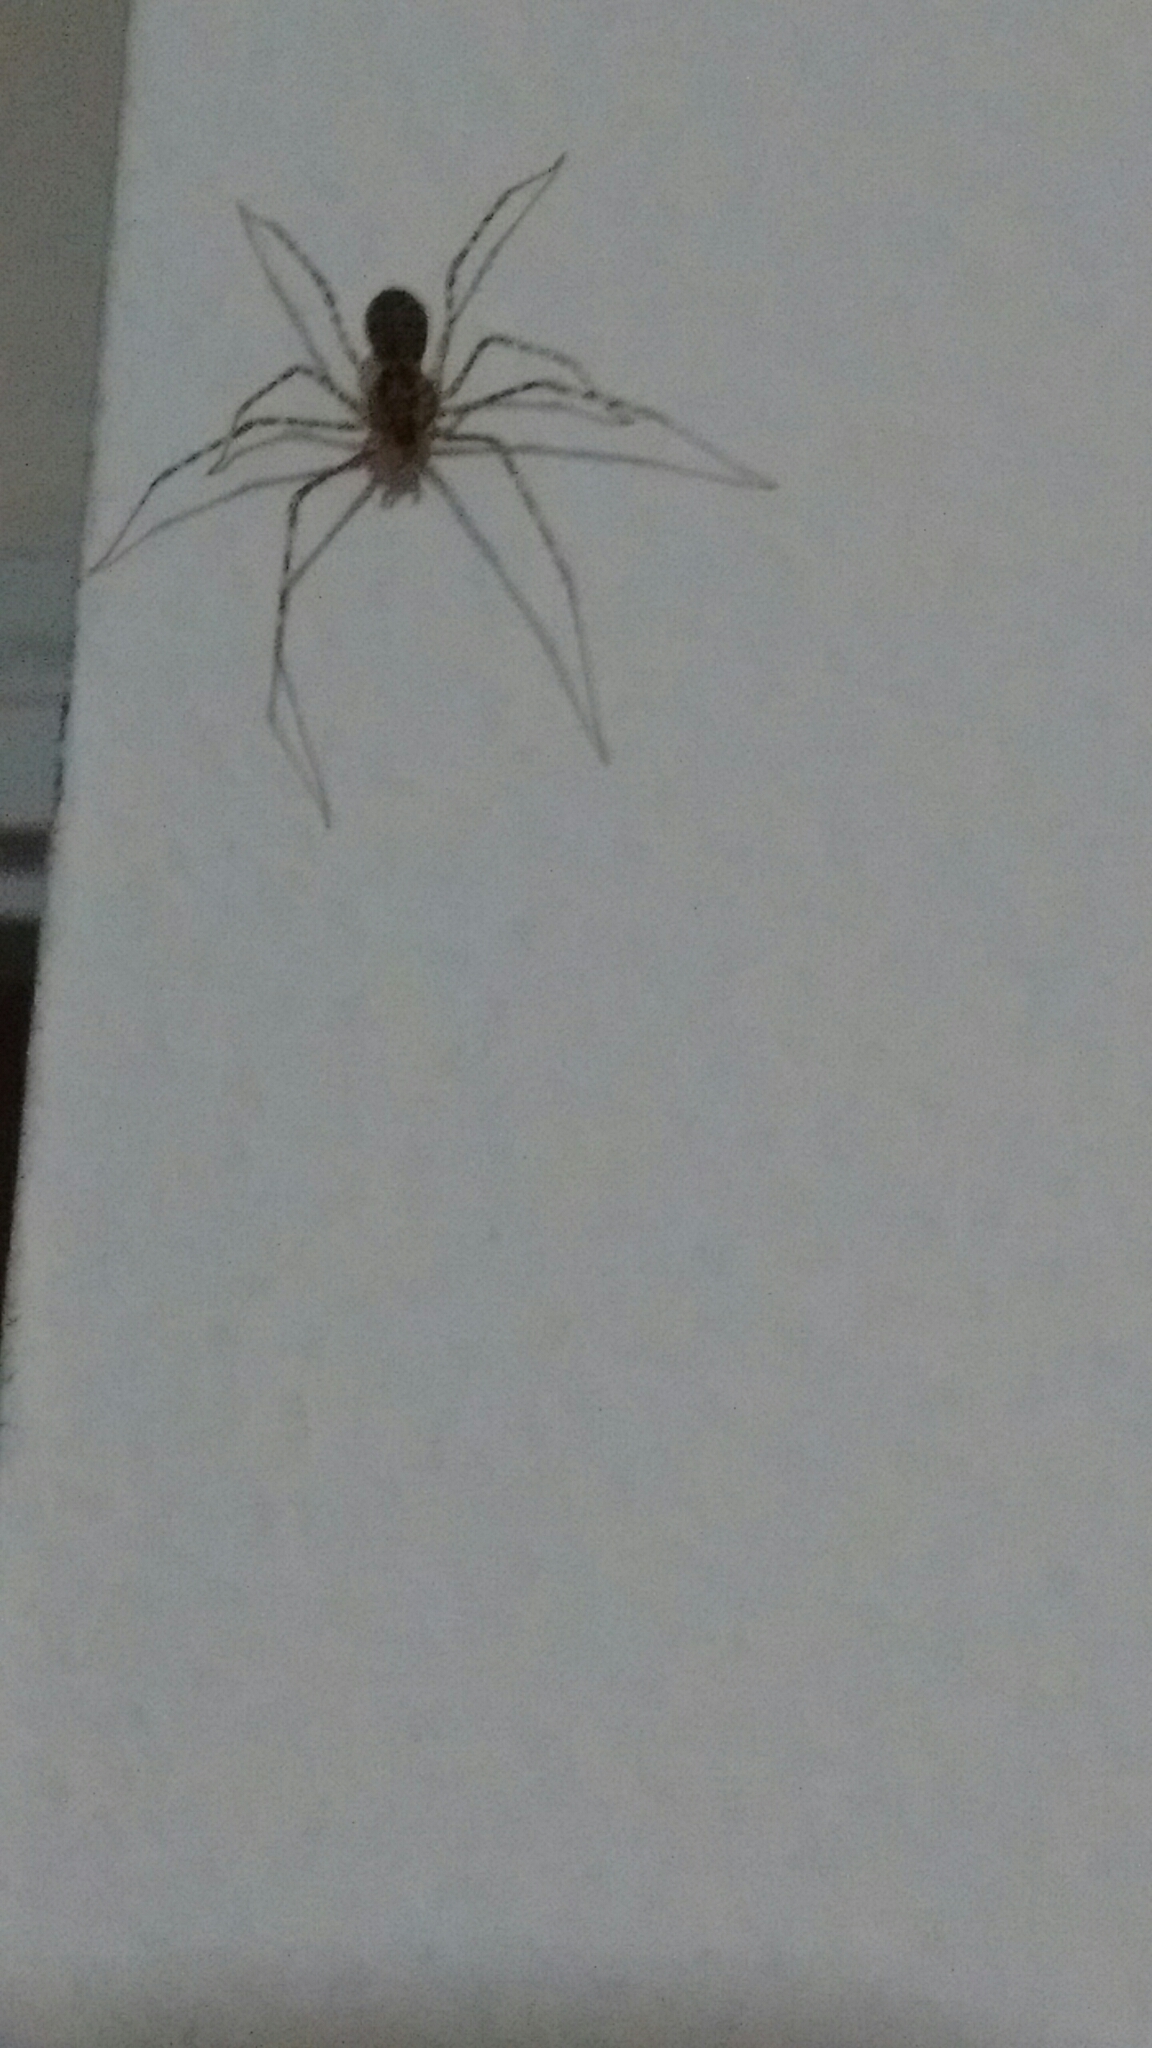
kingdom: Animalia
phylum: Arthropoda
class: Arachnida
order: Araneae
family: Scytodidae
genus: Scytodes
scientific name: Scytodes globula
